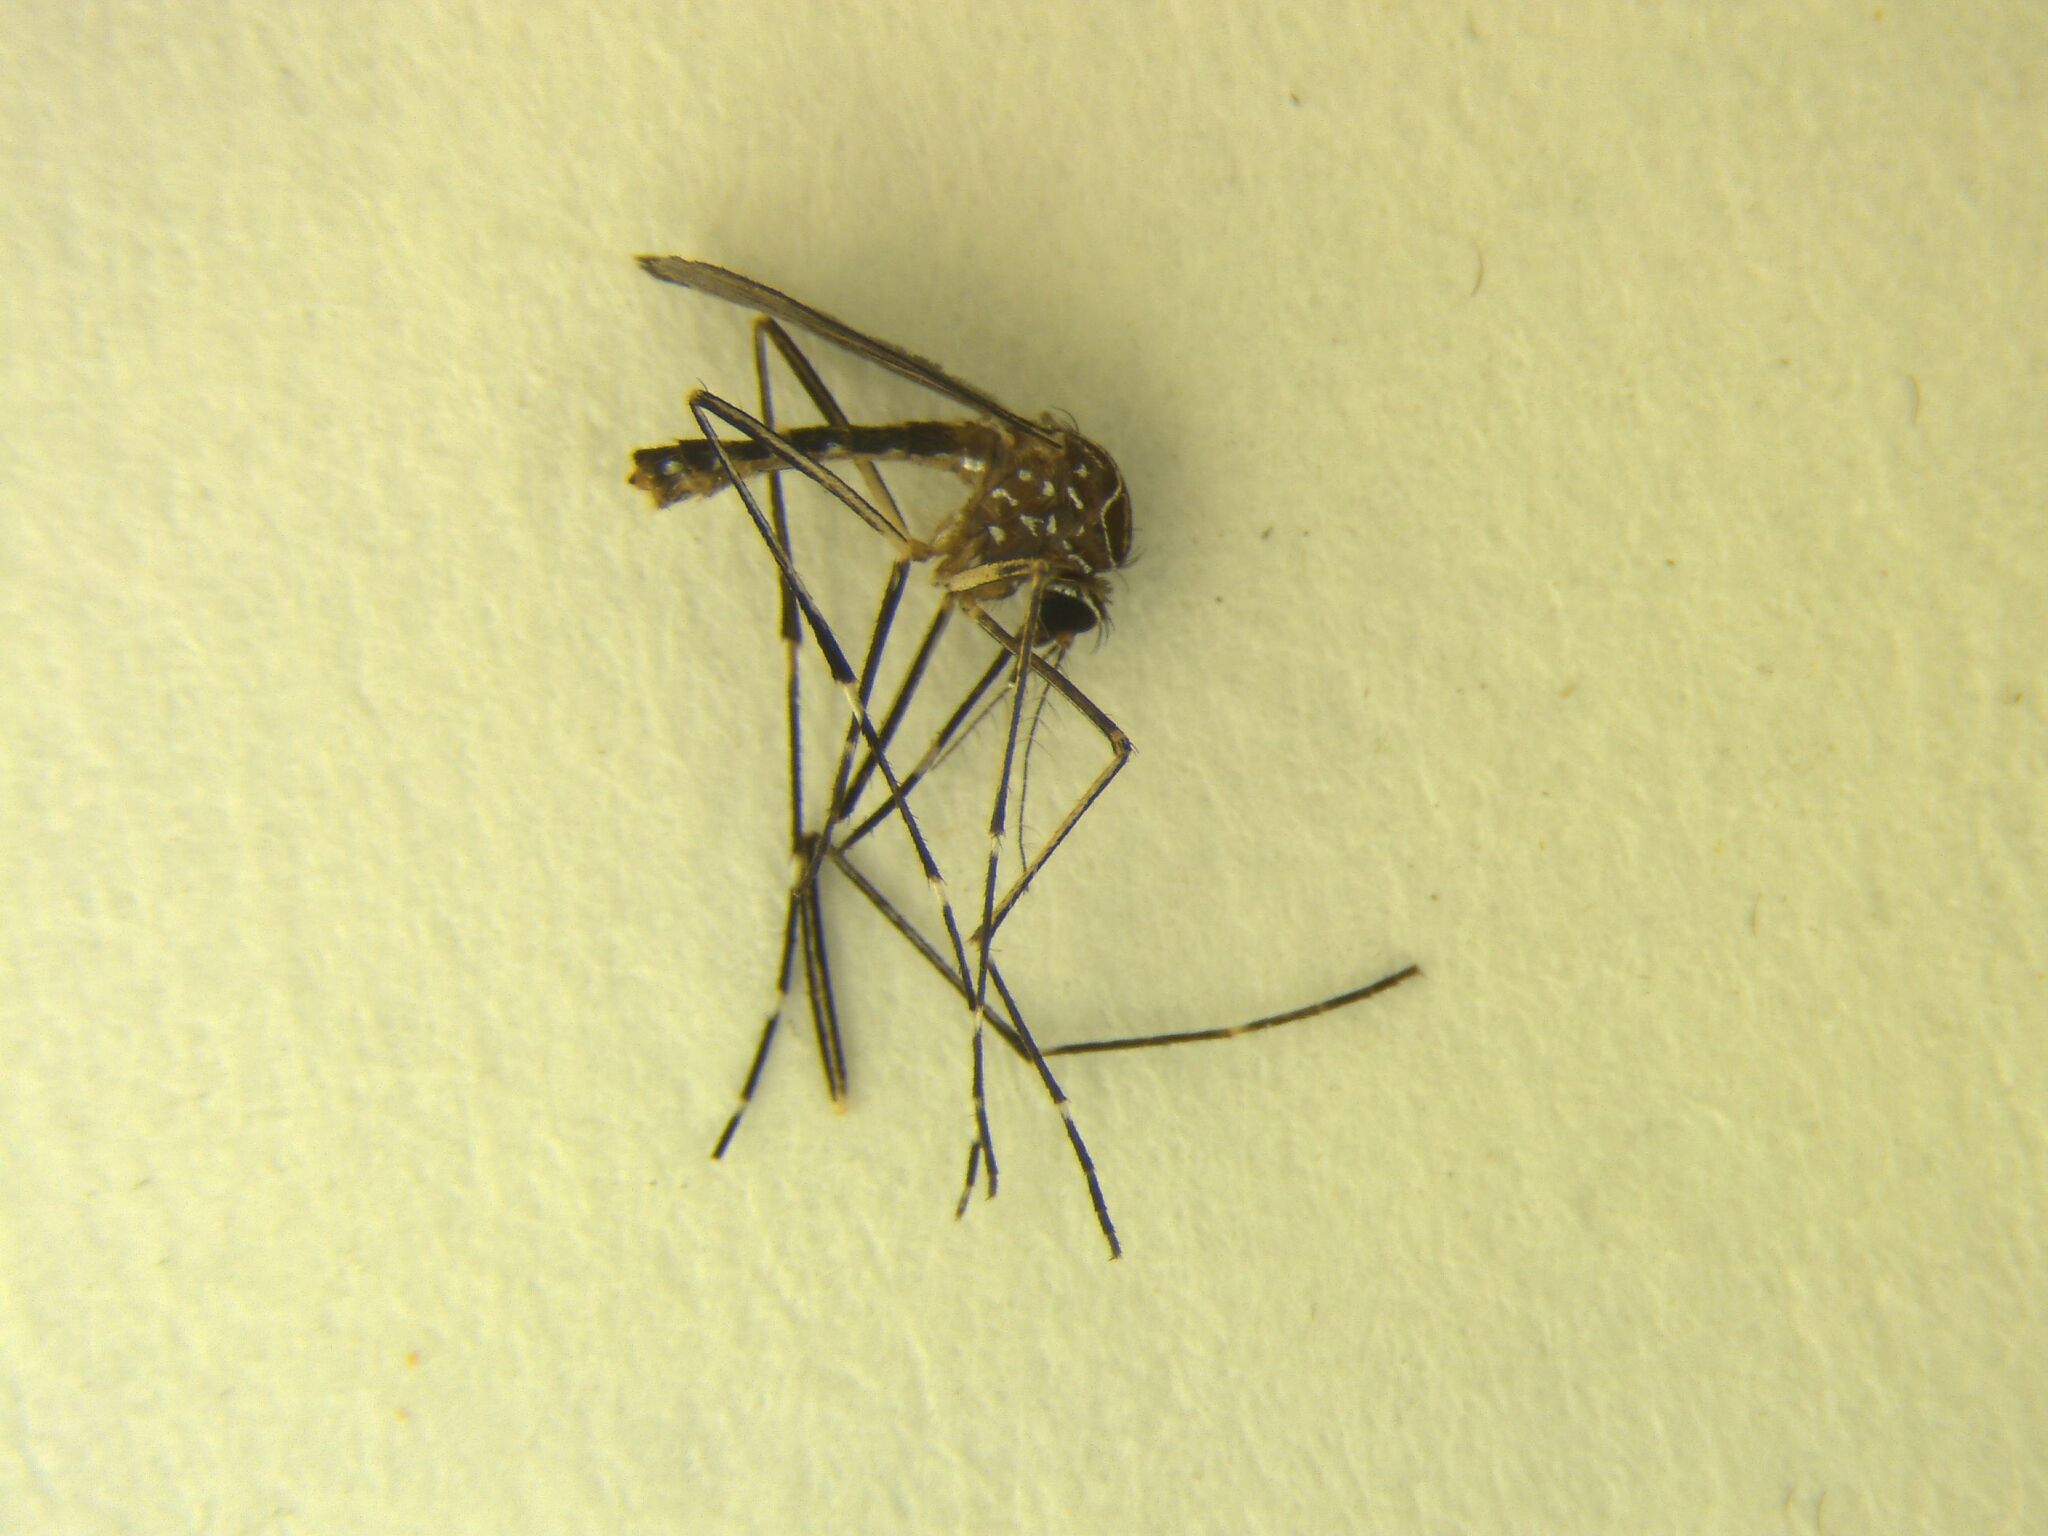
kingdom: Animalia
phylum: Arthropoda
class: Insecta
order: Diptera
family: Culicidae
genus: Aedes
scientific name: Aedes notoscriptus
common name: Australian backyard mosquito
